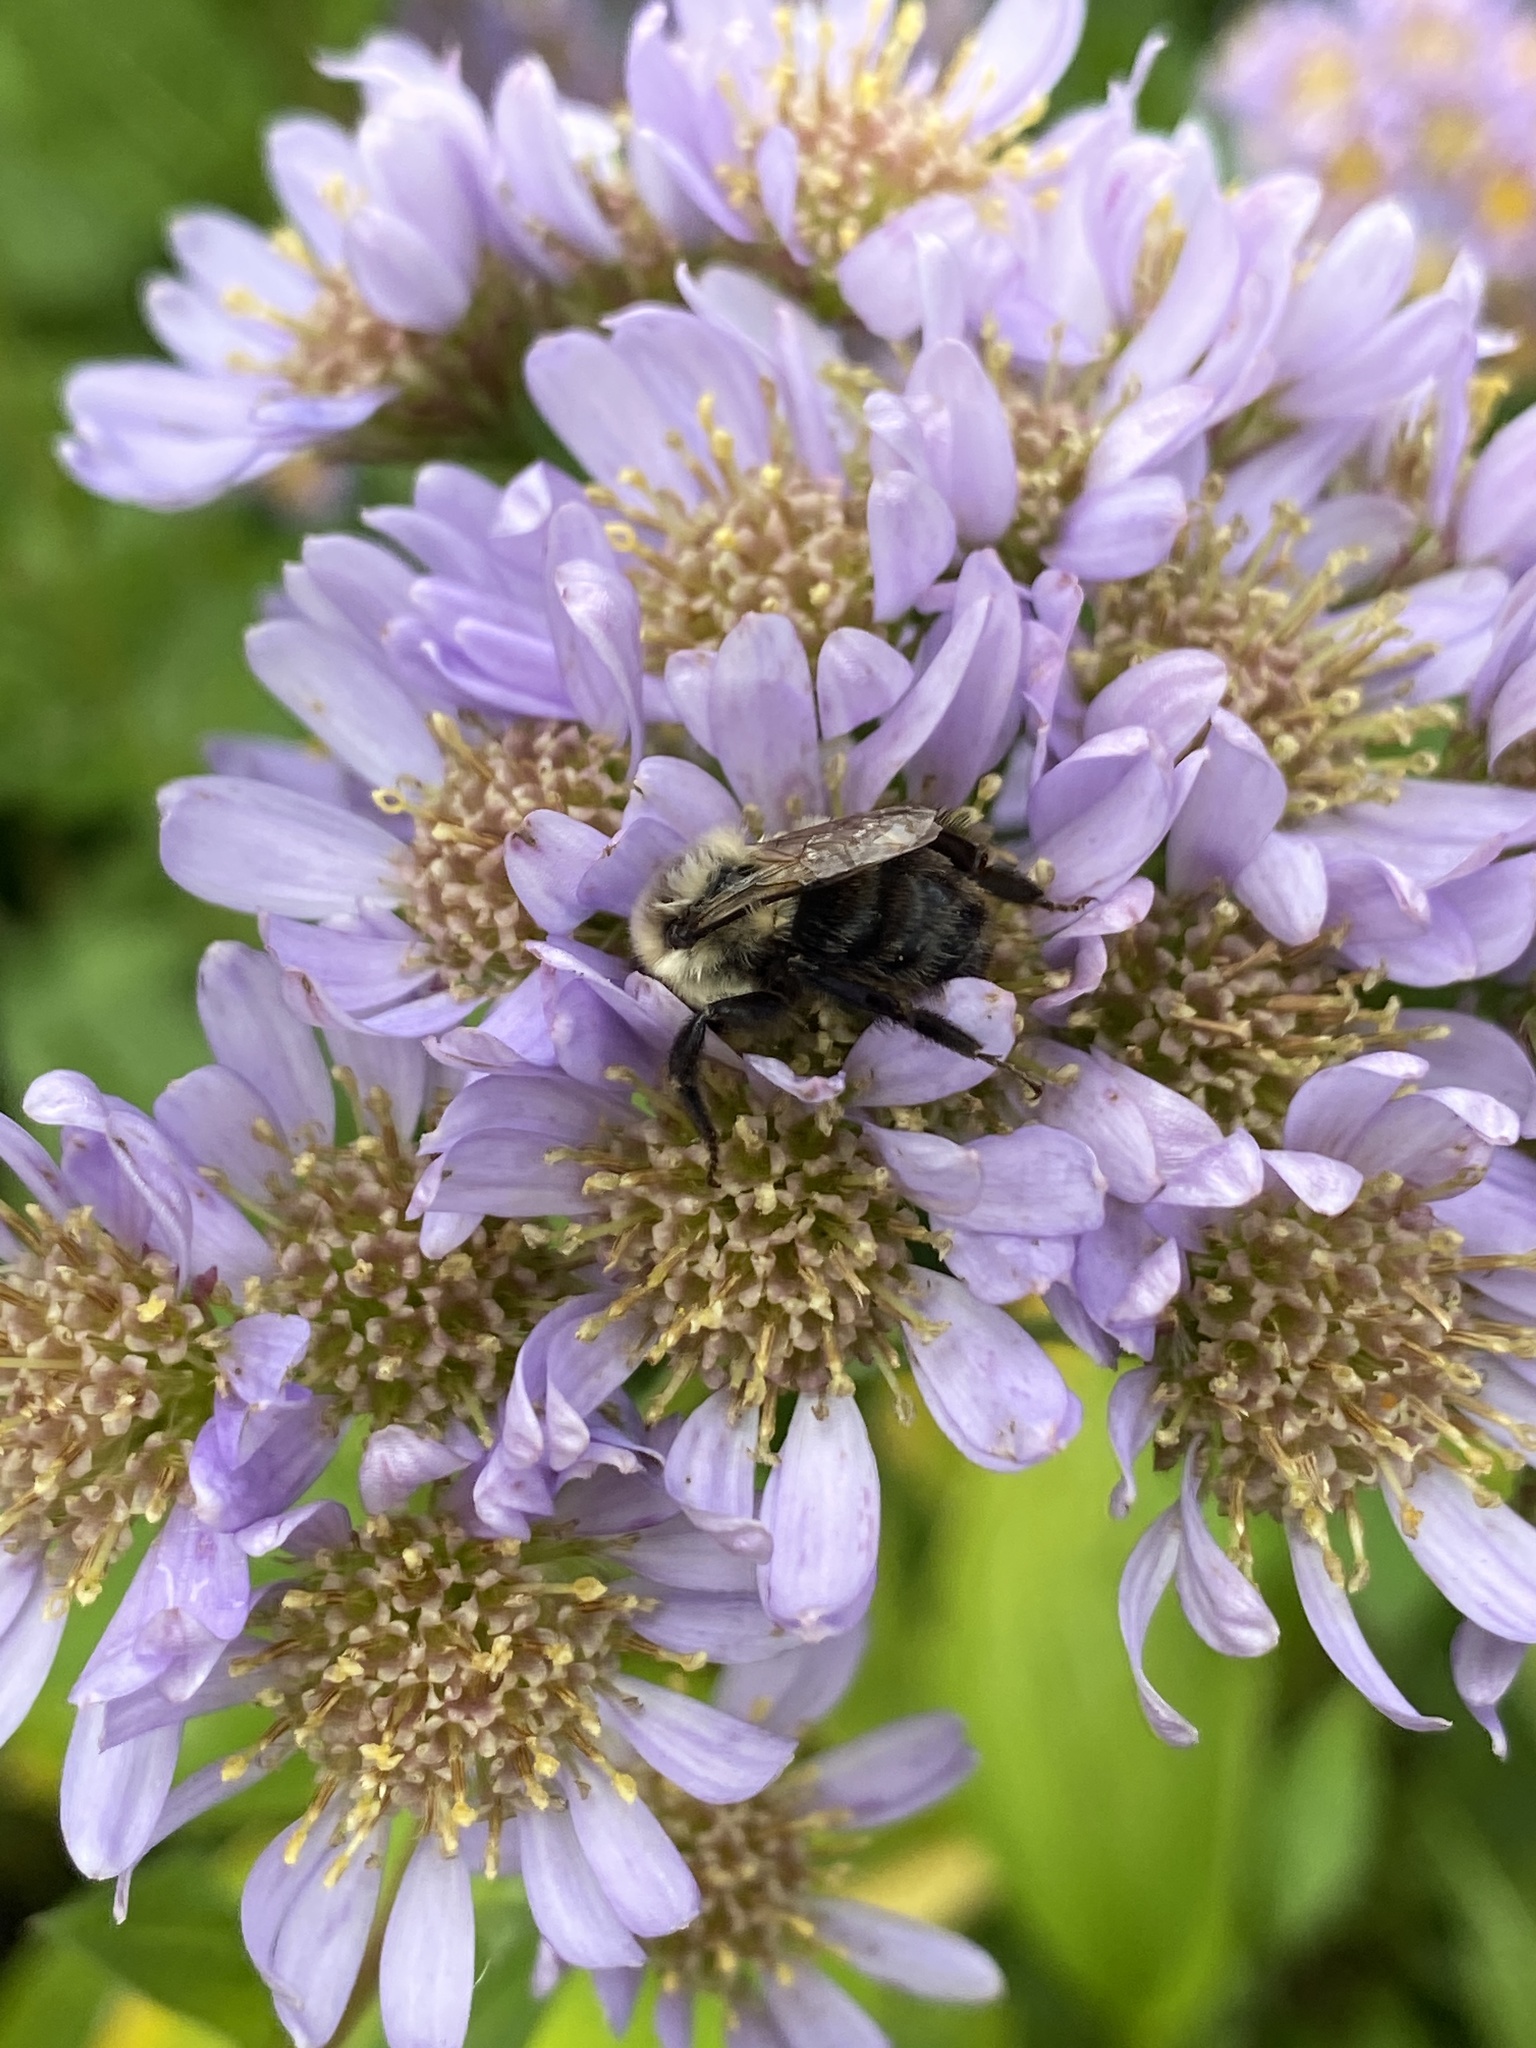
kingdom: Animalia
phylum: Arthropoda
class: Insecta
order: Hymenoptera
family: Apidae
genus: Bombus
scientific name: Bombus impatiens
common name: Common eastern bumble bee
